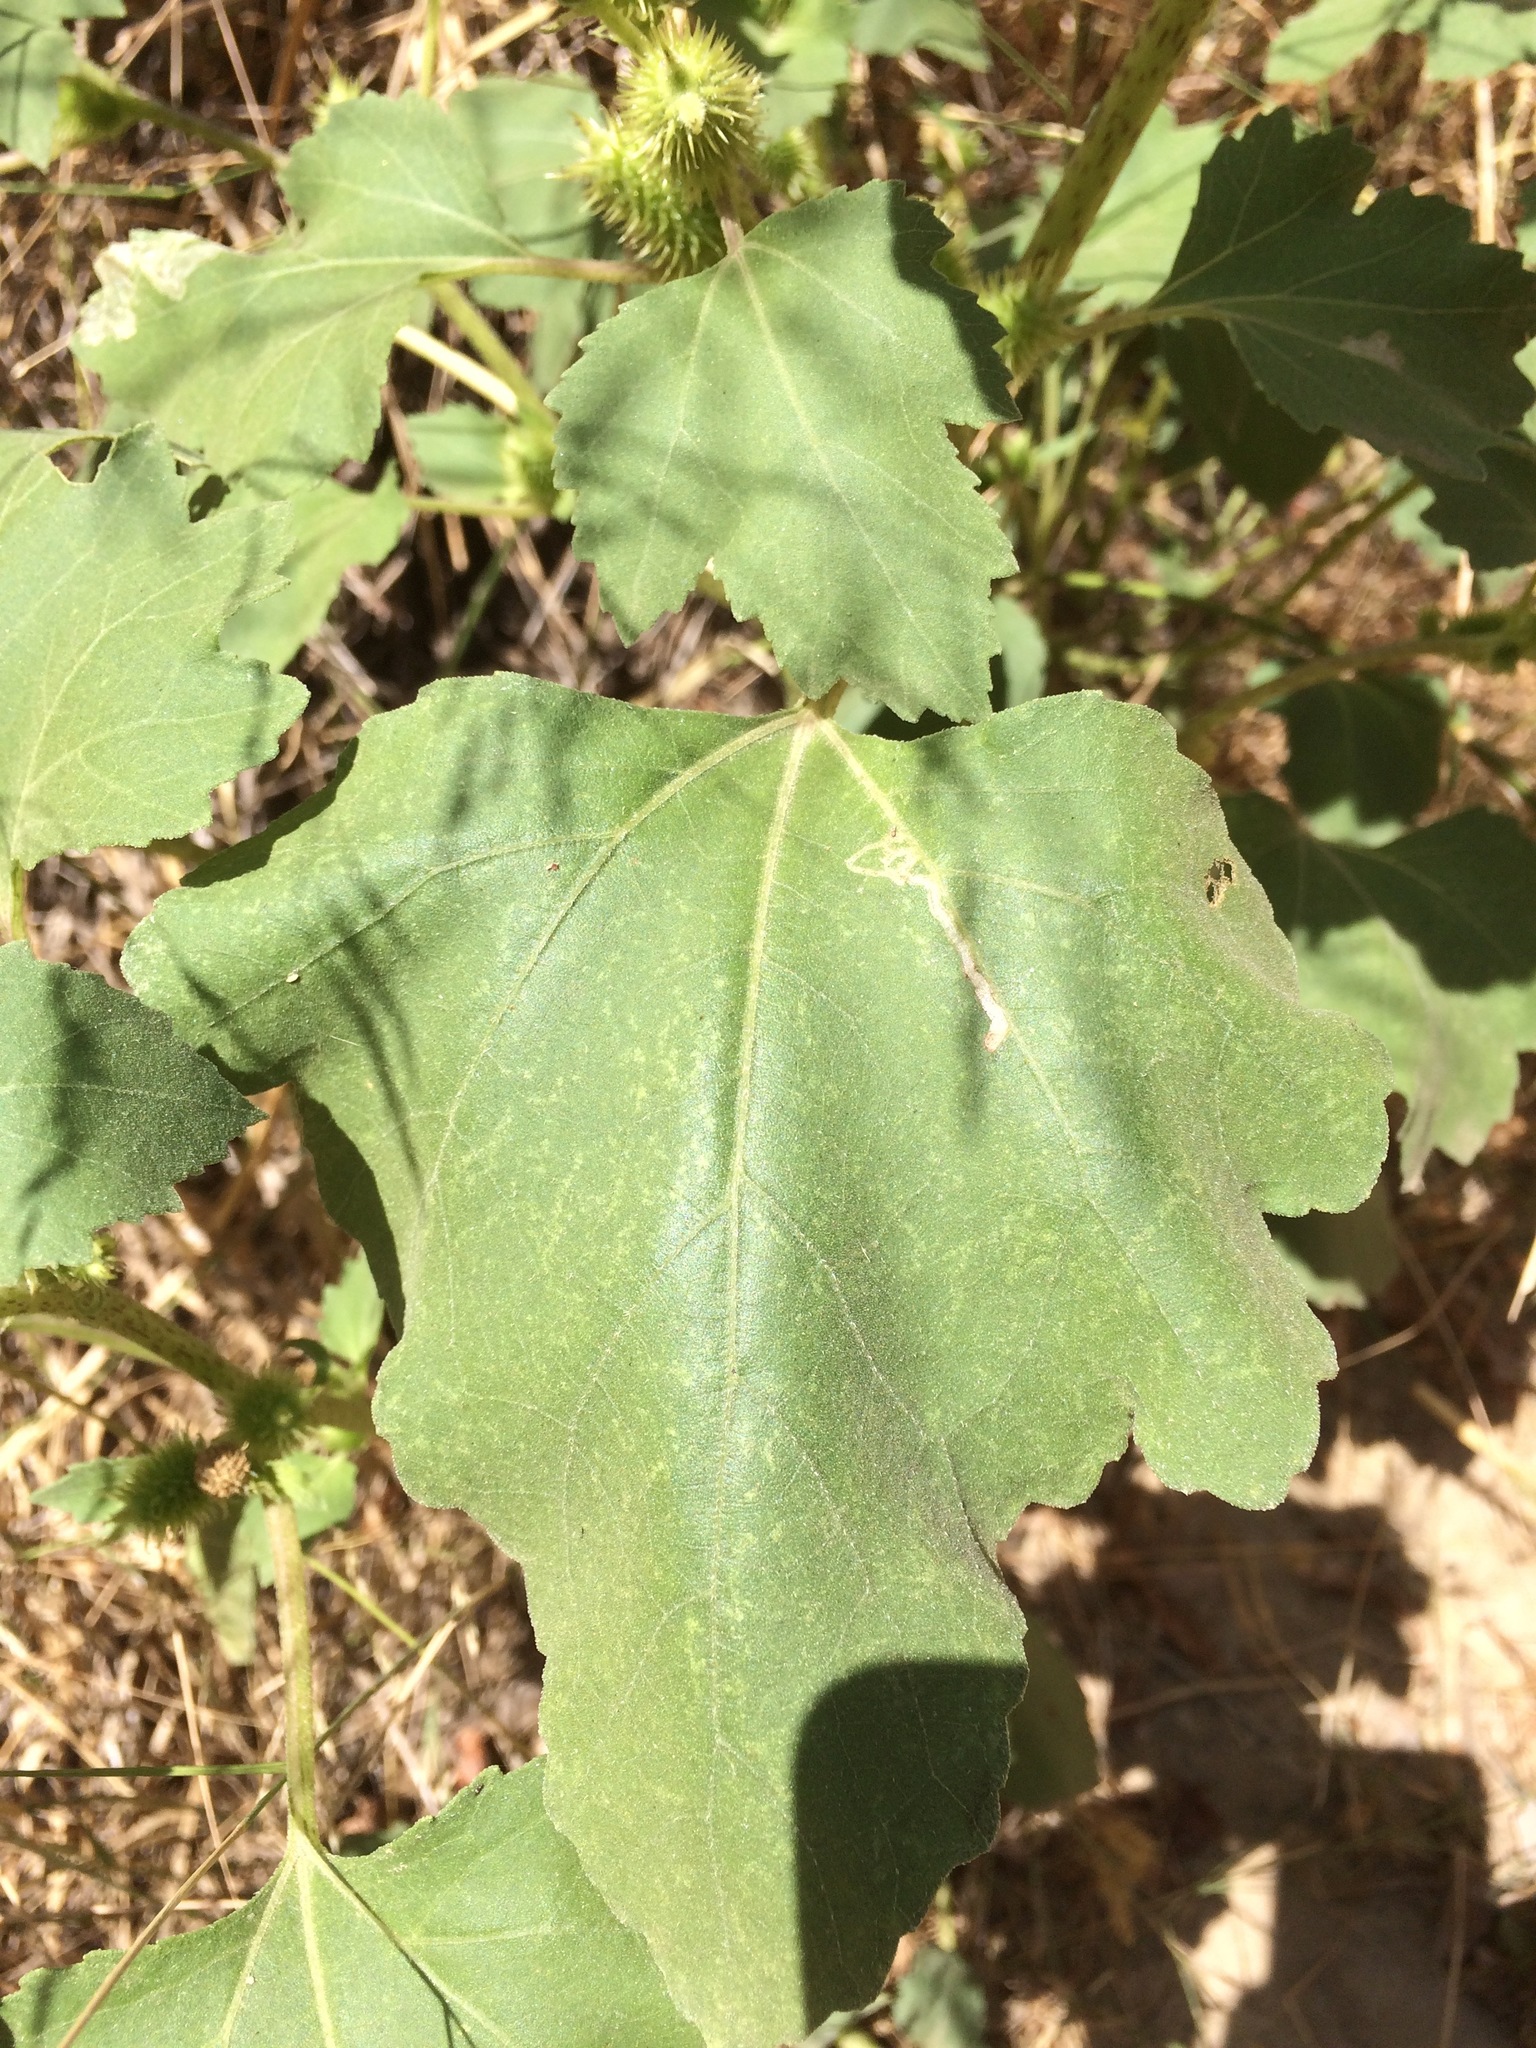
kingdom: Plantae
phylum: Tracheophyta
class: Magnoliopsida
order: Asterales
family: Asteraceae
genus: Xanthium
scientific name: Xanthium strumarium
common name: Rough cocklebur
